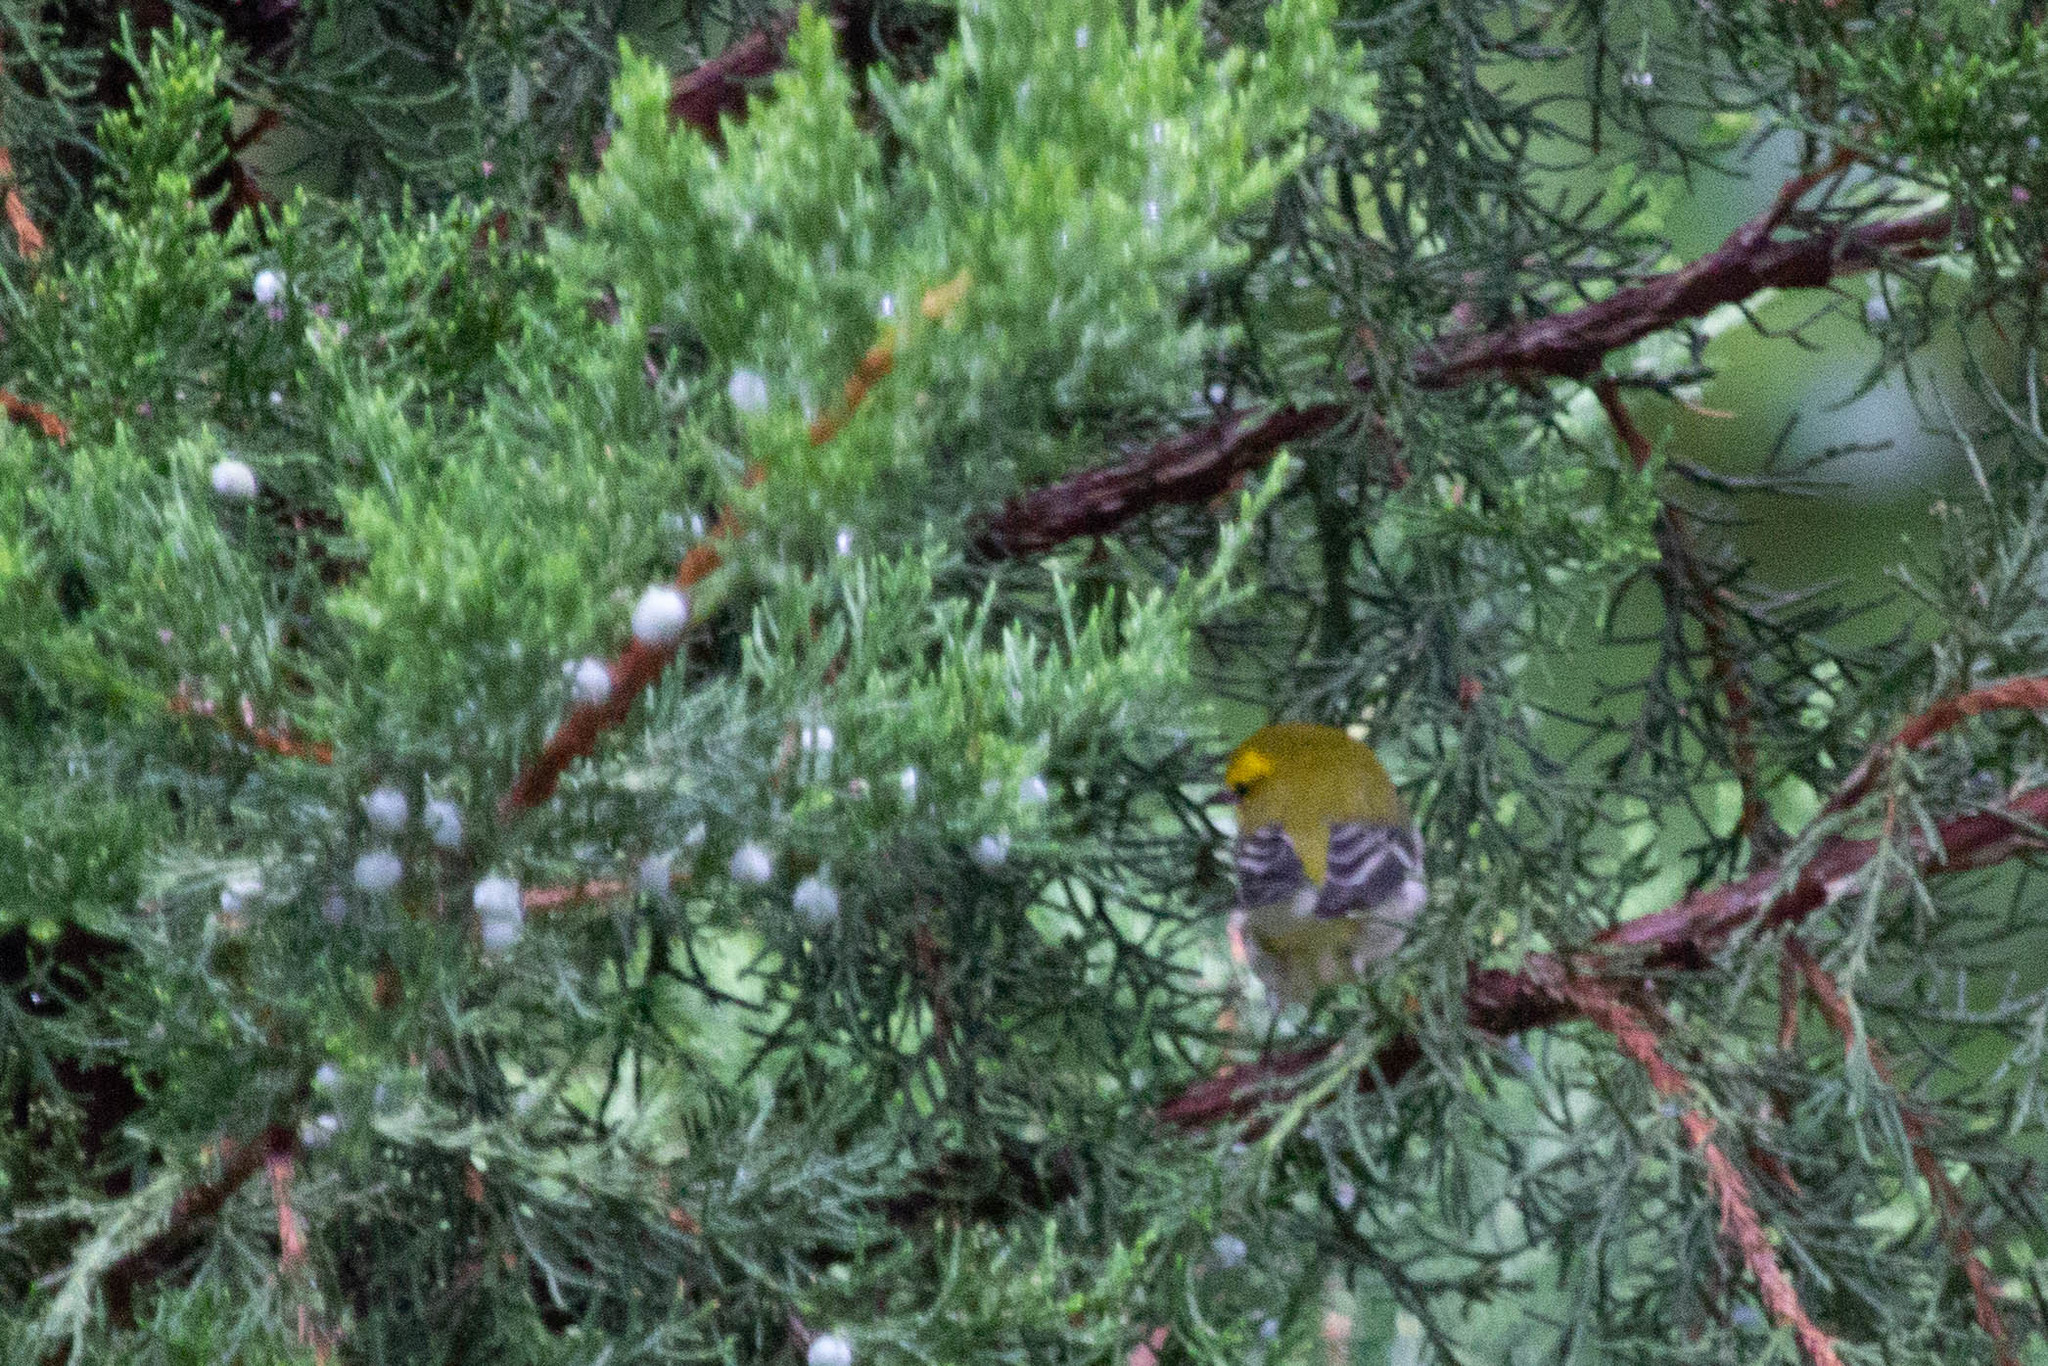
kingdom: Animalia
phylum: Chordata
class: Aves
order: Passeriformes
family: Parulidae
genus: Setophaga
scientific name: Setophaga virens
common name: Black-throated green warbler
